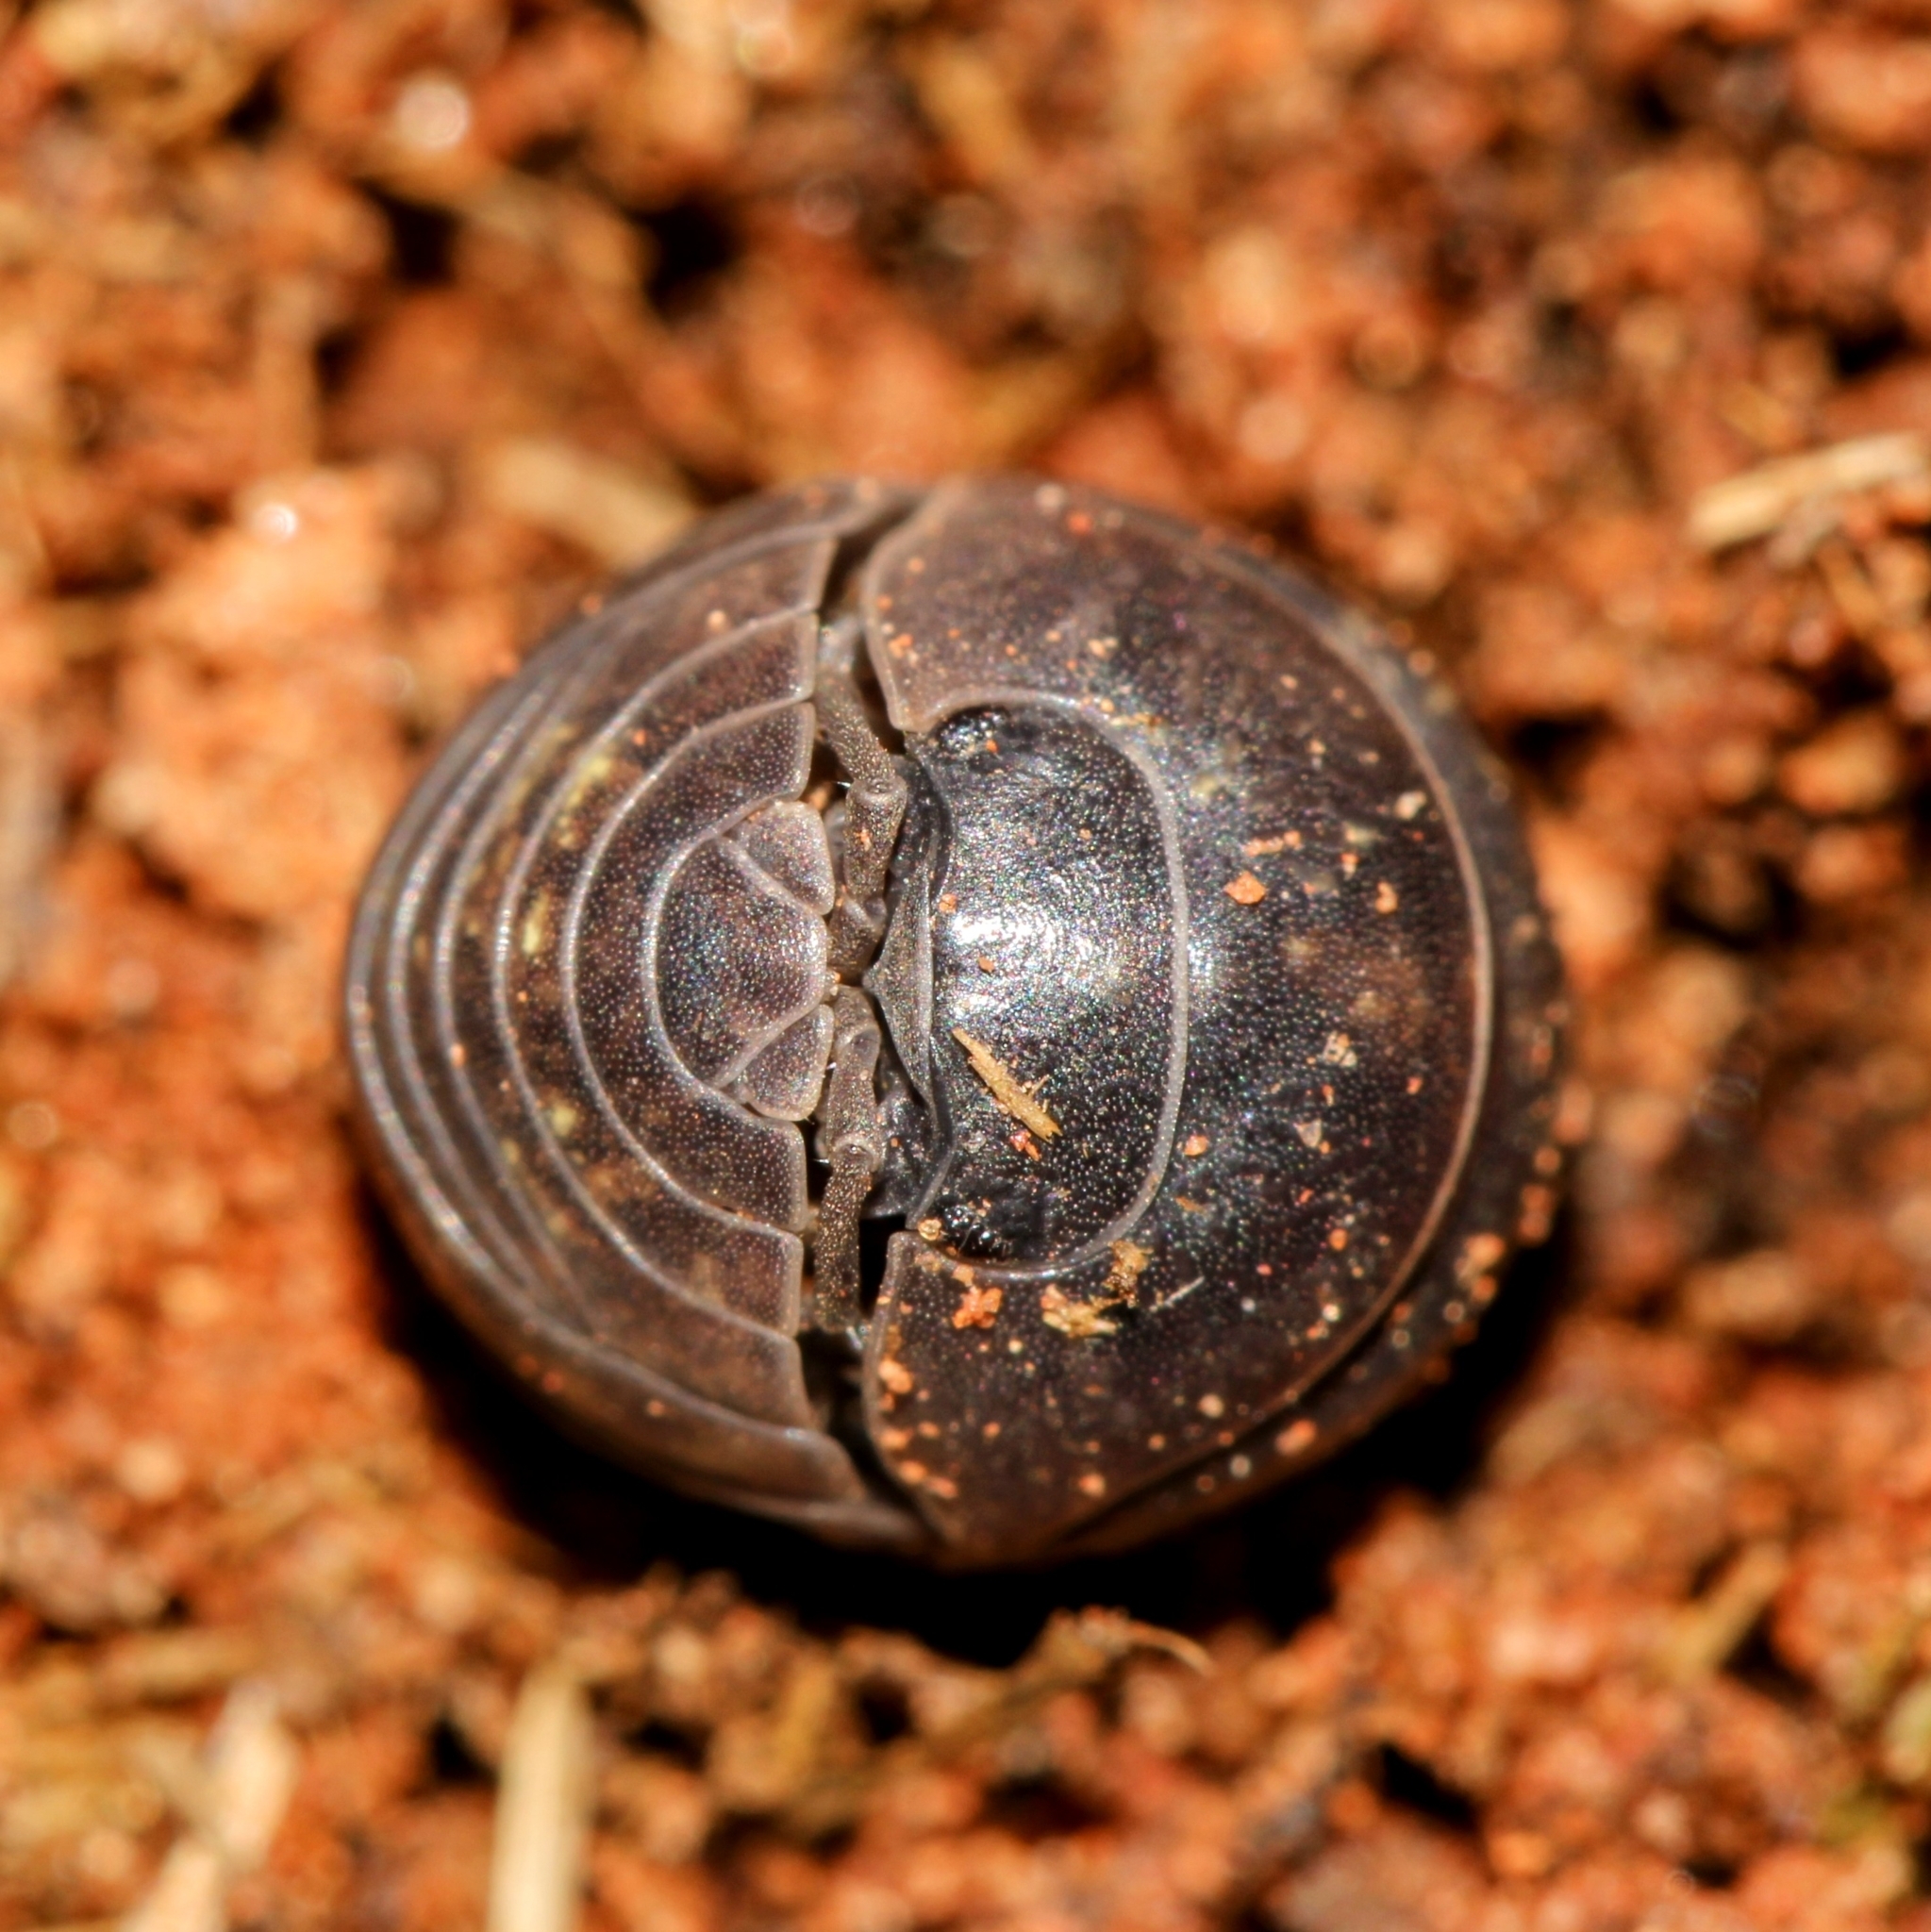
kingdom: Animalia
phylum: Arthropoda
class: Malacostraca
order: Isopoda
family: Armadillidiidae
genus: Armadillidium
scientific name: Armadillidium vulgare
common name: Common pill woodlouse
